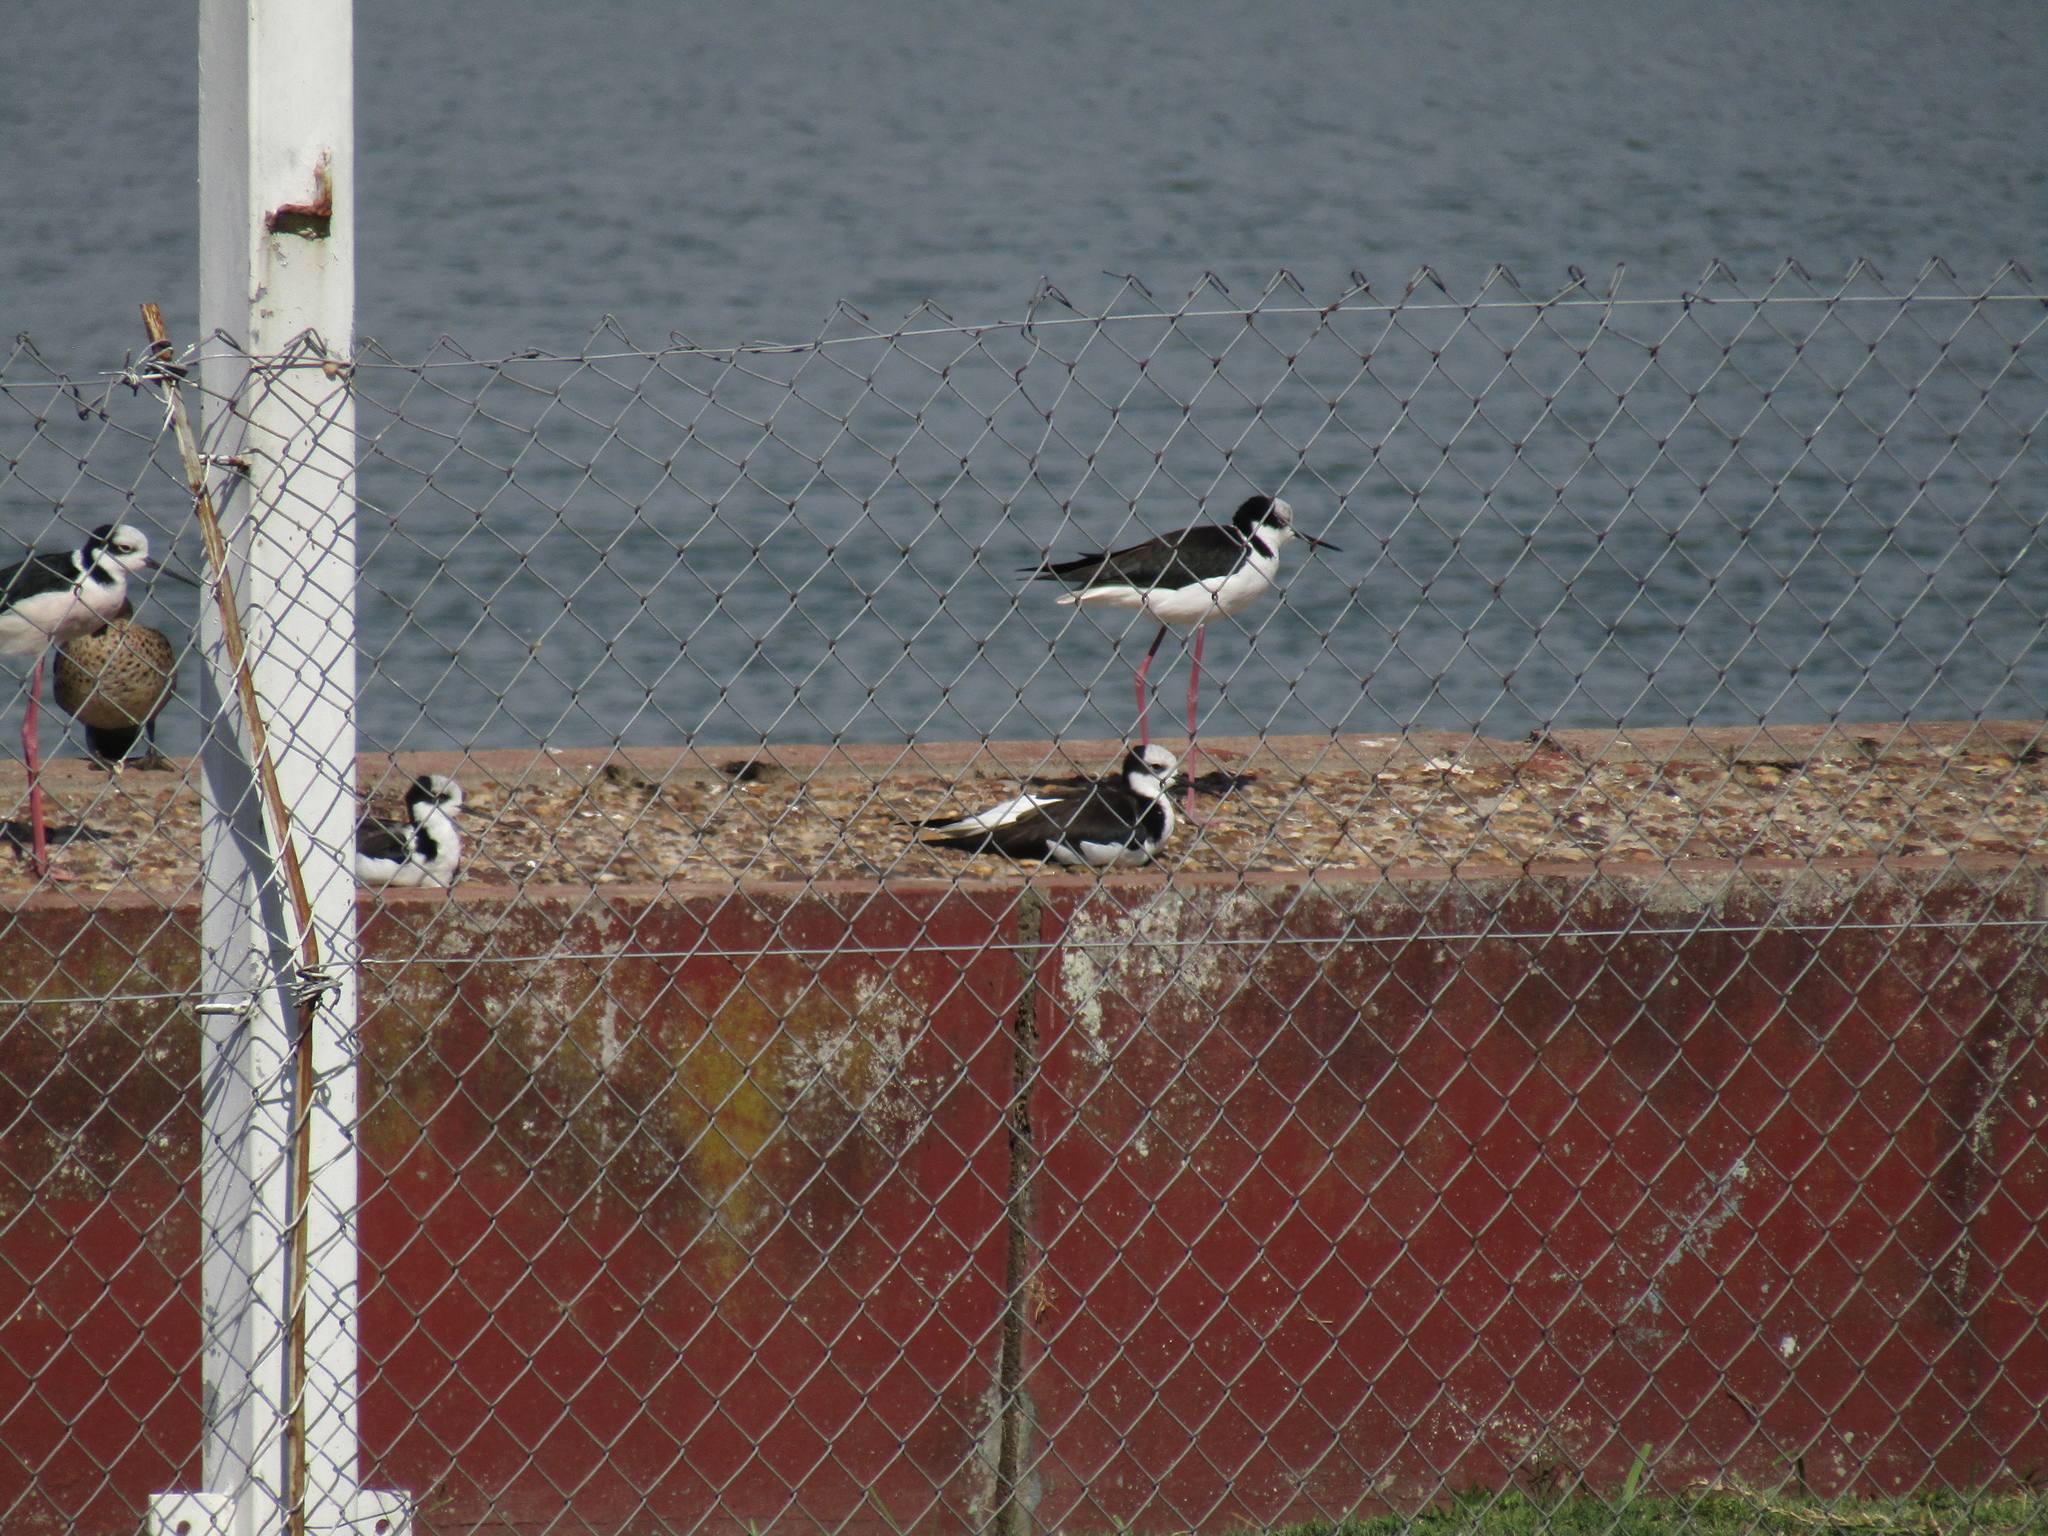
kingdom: Animalia
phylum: Chordata
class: Aves
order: Charadriiformes
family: Recurvirostridae
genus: Himantopus
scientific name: Himantopus mexicanus
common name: Black-necked stilt
